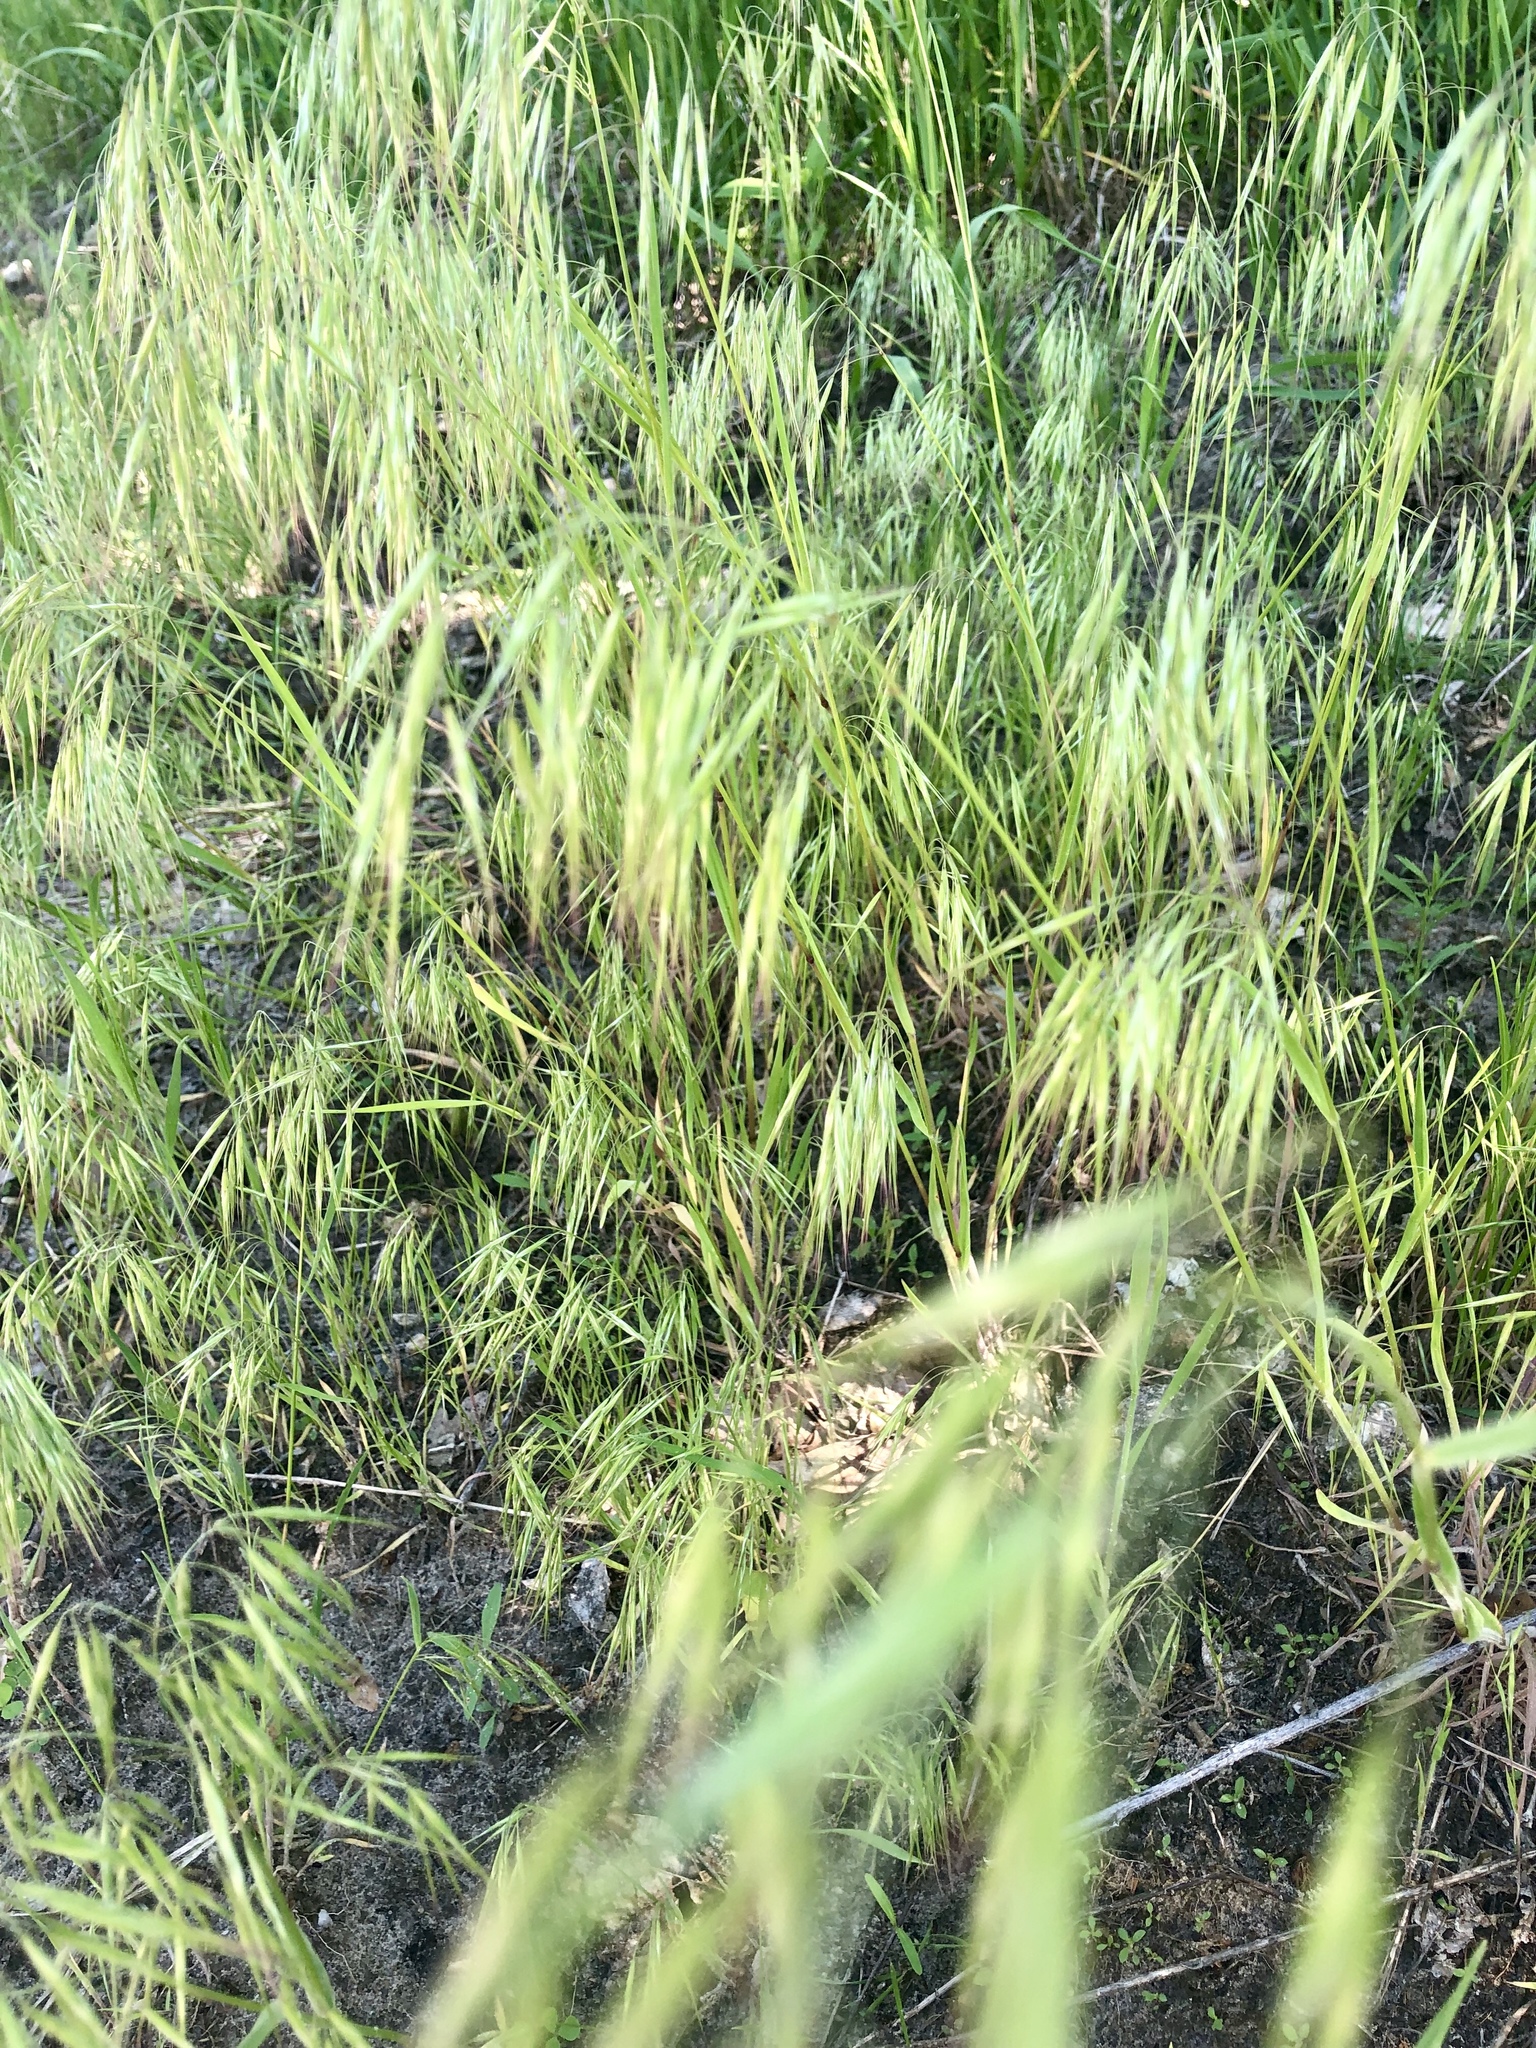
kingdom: Plantae
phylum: Tracheophyta
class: Liliopsida
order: Poales
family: Poaceae
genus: Bromus
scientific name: Bromus tectorum
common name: Cheatgrass
